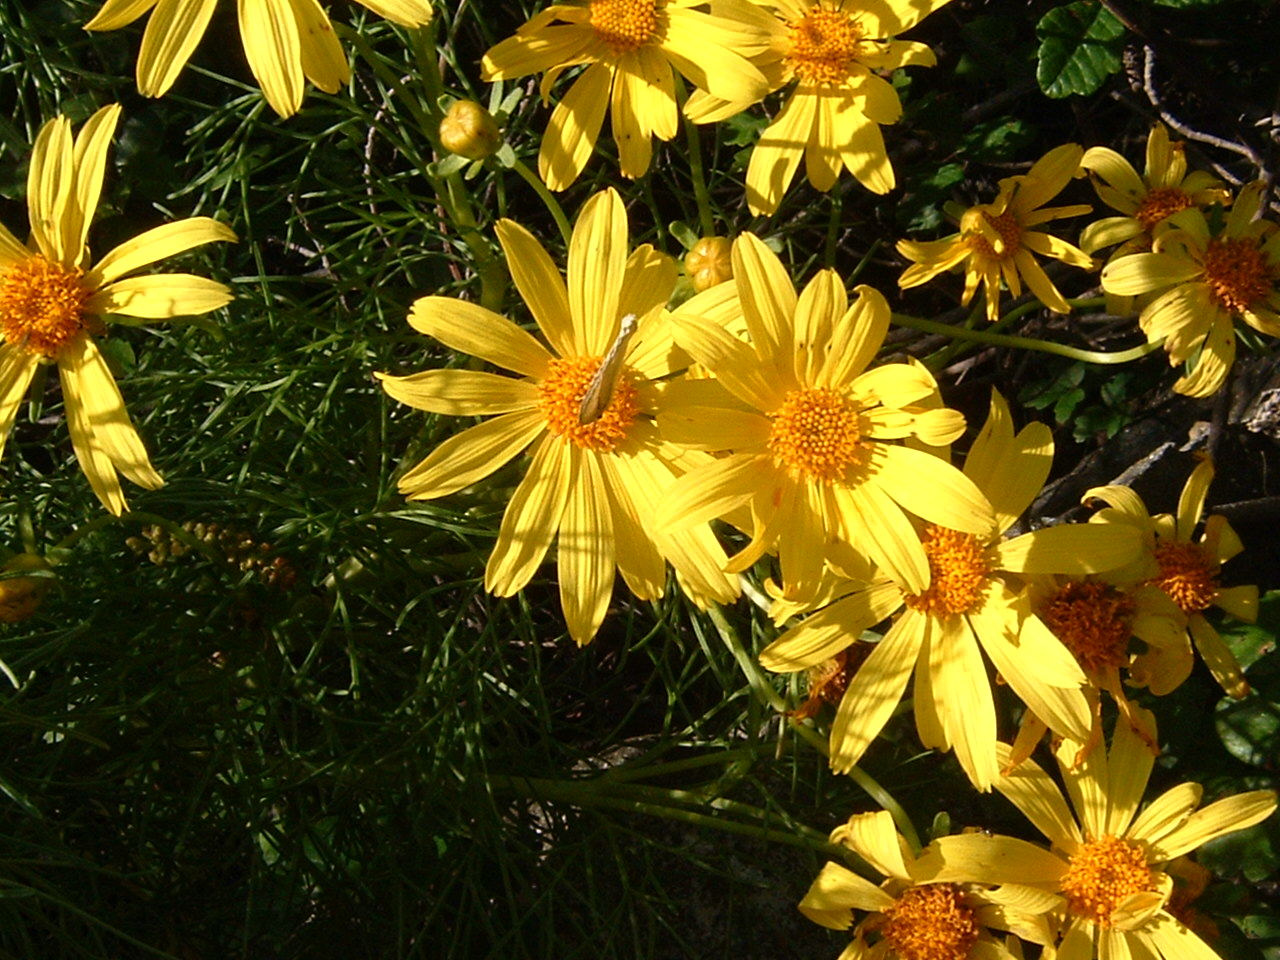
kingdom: Plantae
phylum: Tracheophyta
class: Magnoliopsida
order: Asterales
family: Asteraceae
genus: Coreopsis
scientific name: Coreopsis gigantea
